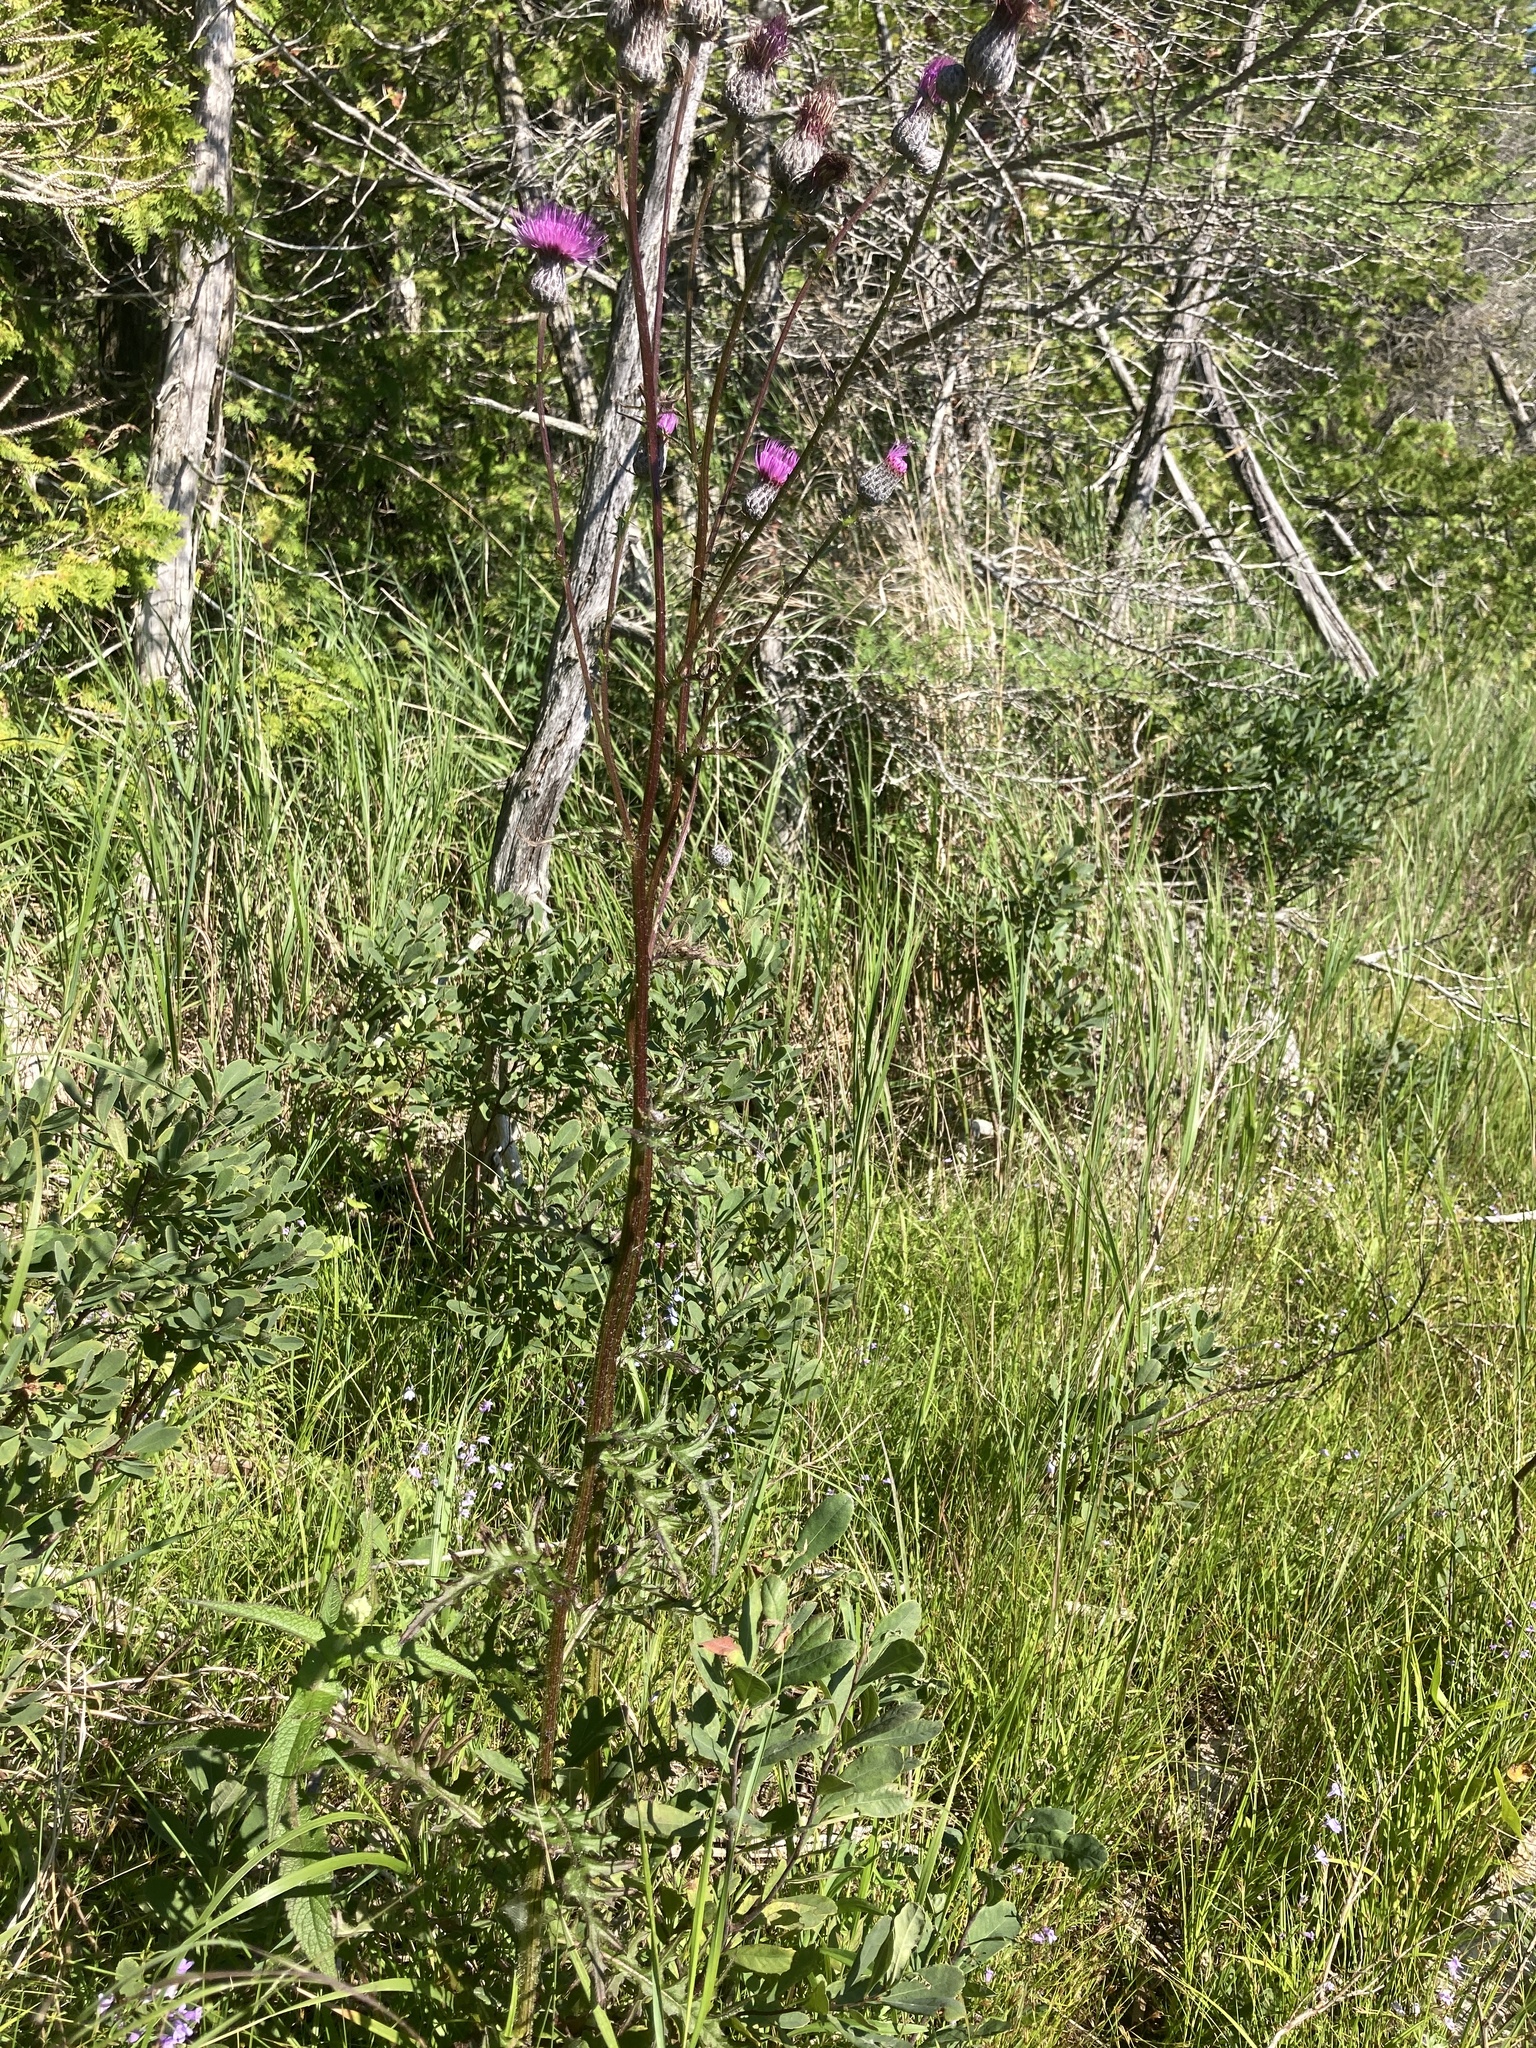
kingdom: Plantae
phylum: Tracheophyta
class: Magnoliopsida
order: Asterales
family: Asteraceae
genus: Cirsium
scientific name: Cirsium muticum
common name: Dunce-nettle
